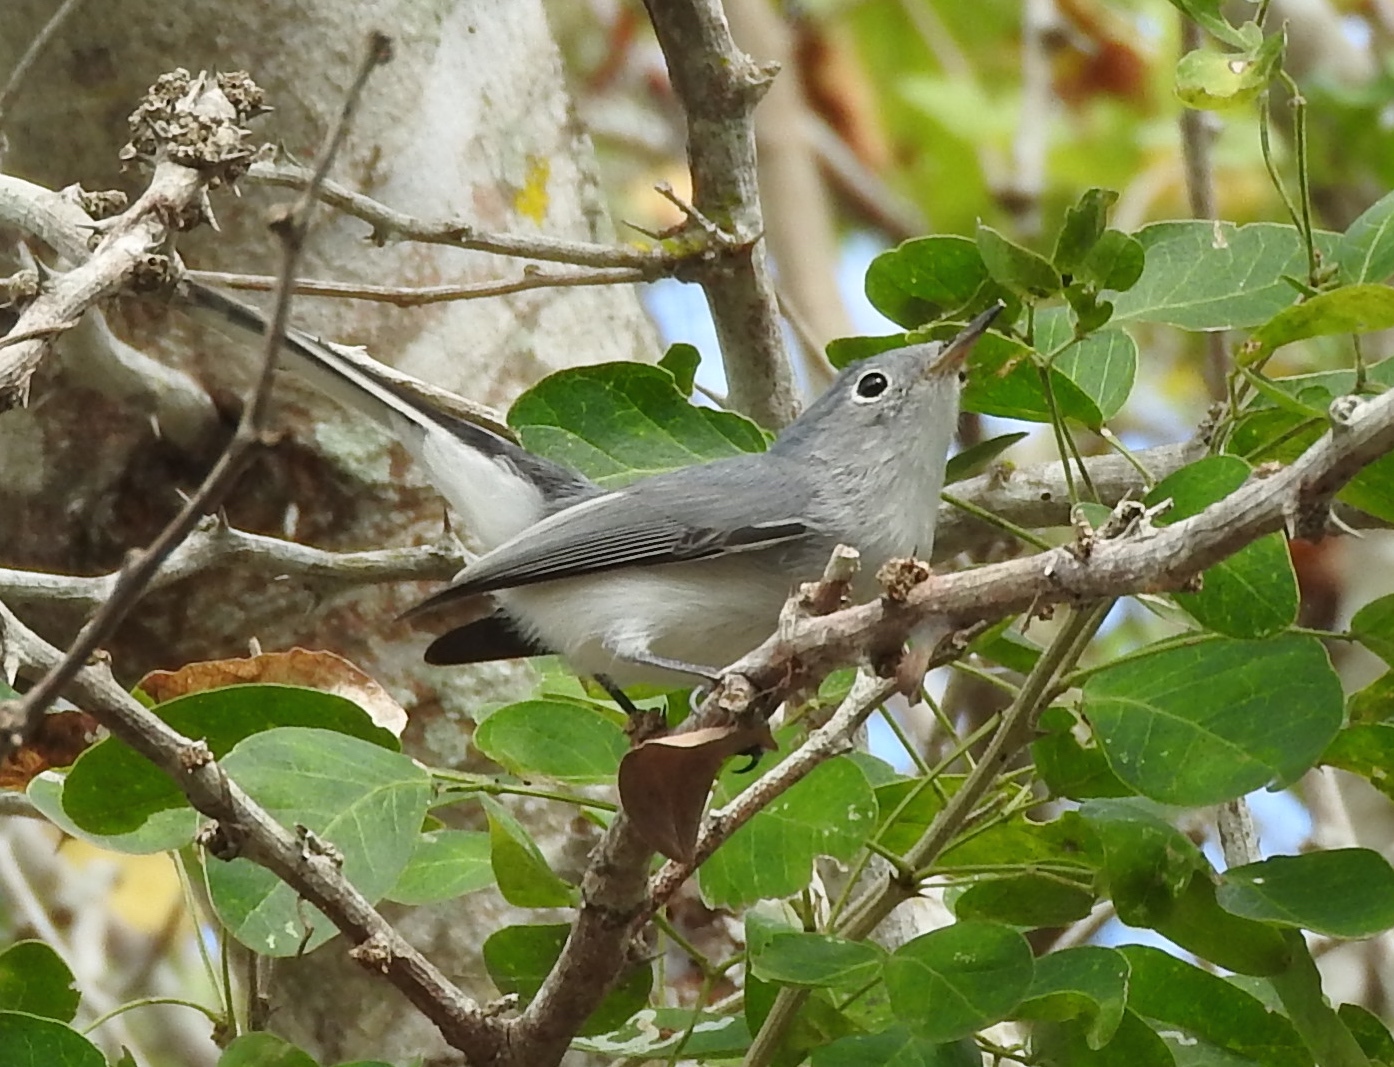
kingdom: Animalia
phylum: Chordata
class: Aves
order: Passeriformes
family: Polioptilidae
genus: Polioptila
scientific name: Polioptila caerulea
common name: Blue-gray gnatcatcher
